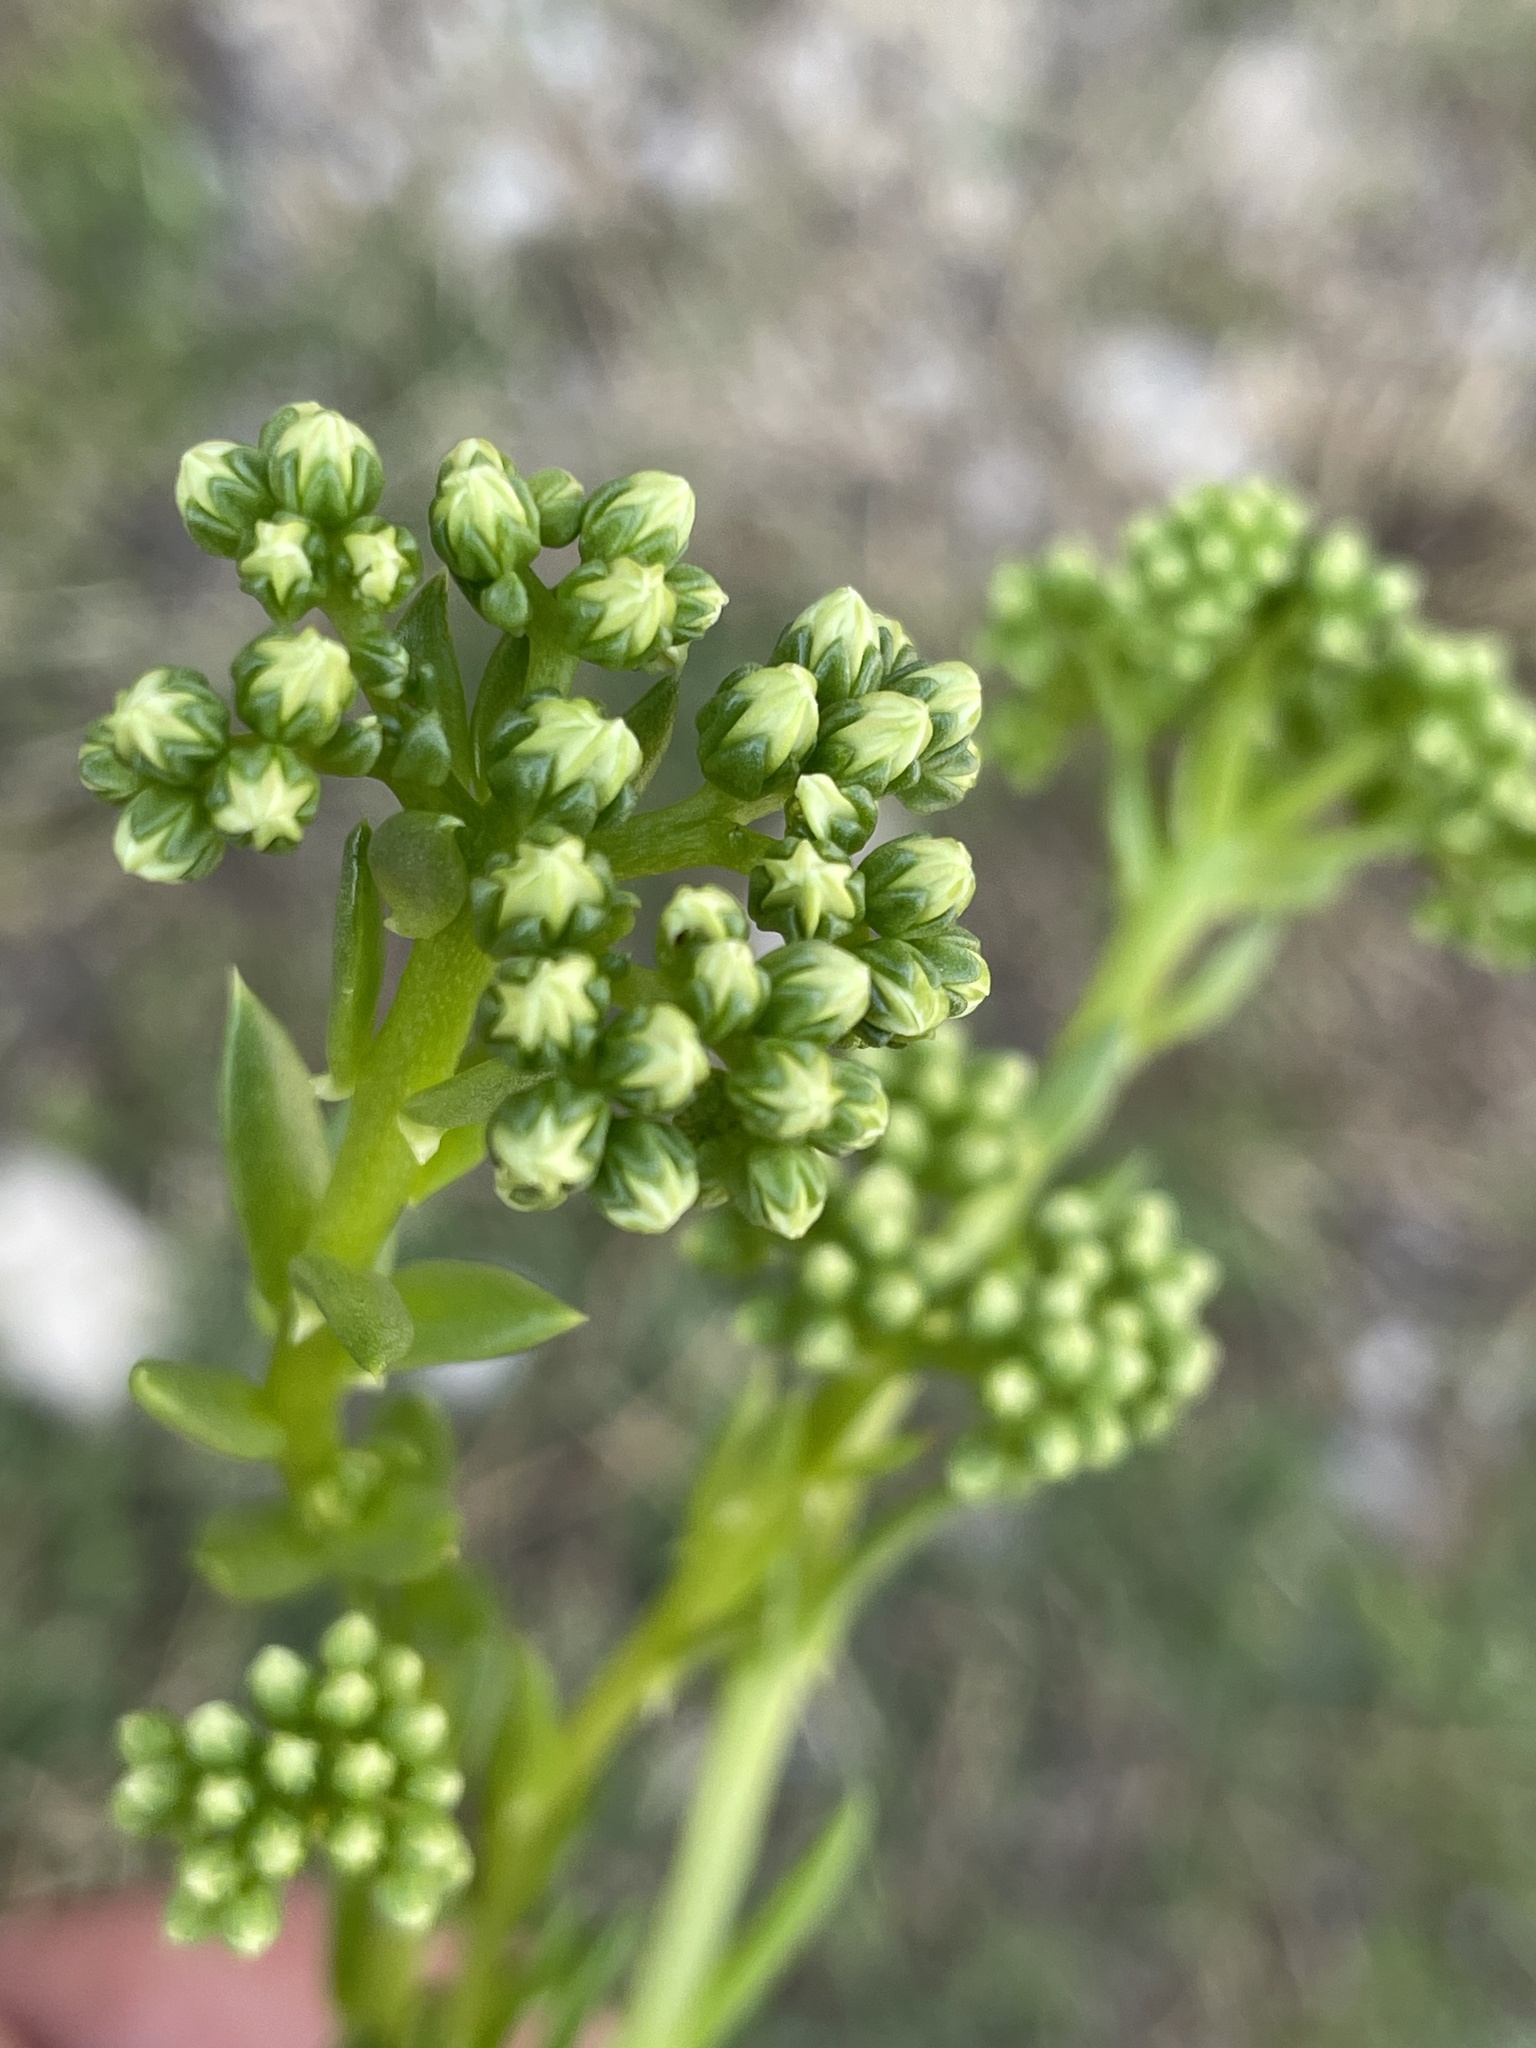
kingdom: Plantae
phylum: Tracheophyta
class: Magnoliopsida
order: Saxifragales
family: Crassulaceae
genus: Petrosedum
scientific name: Petrosedum sediforme
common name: Pale stonecrop
